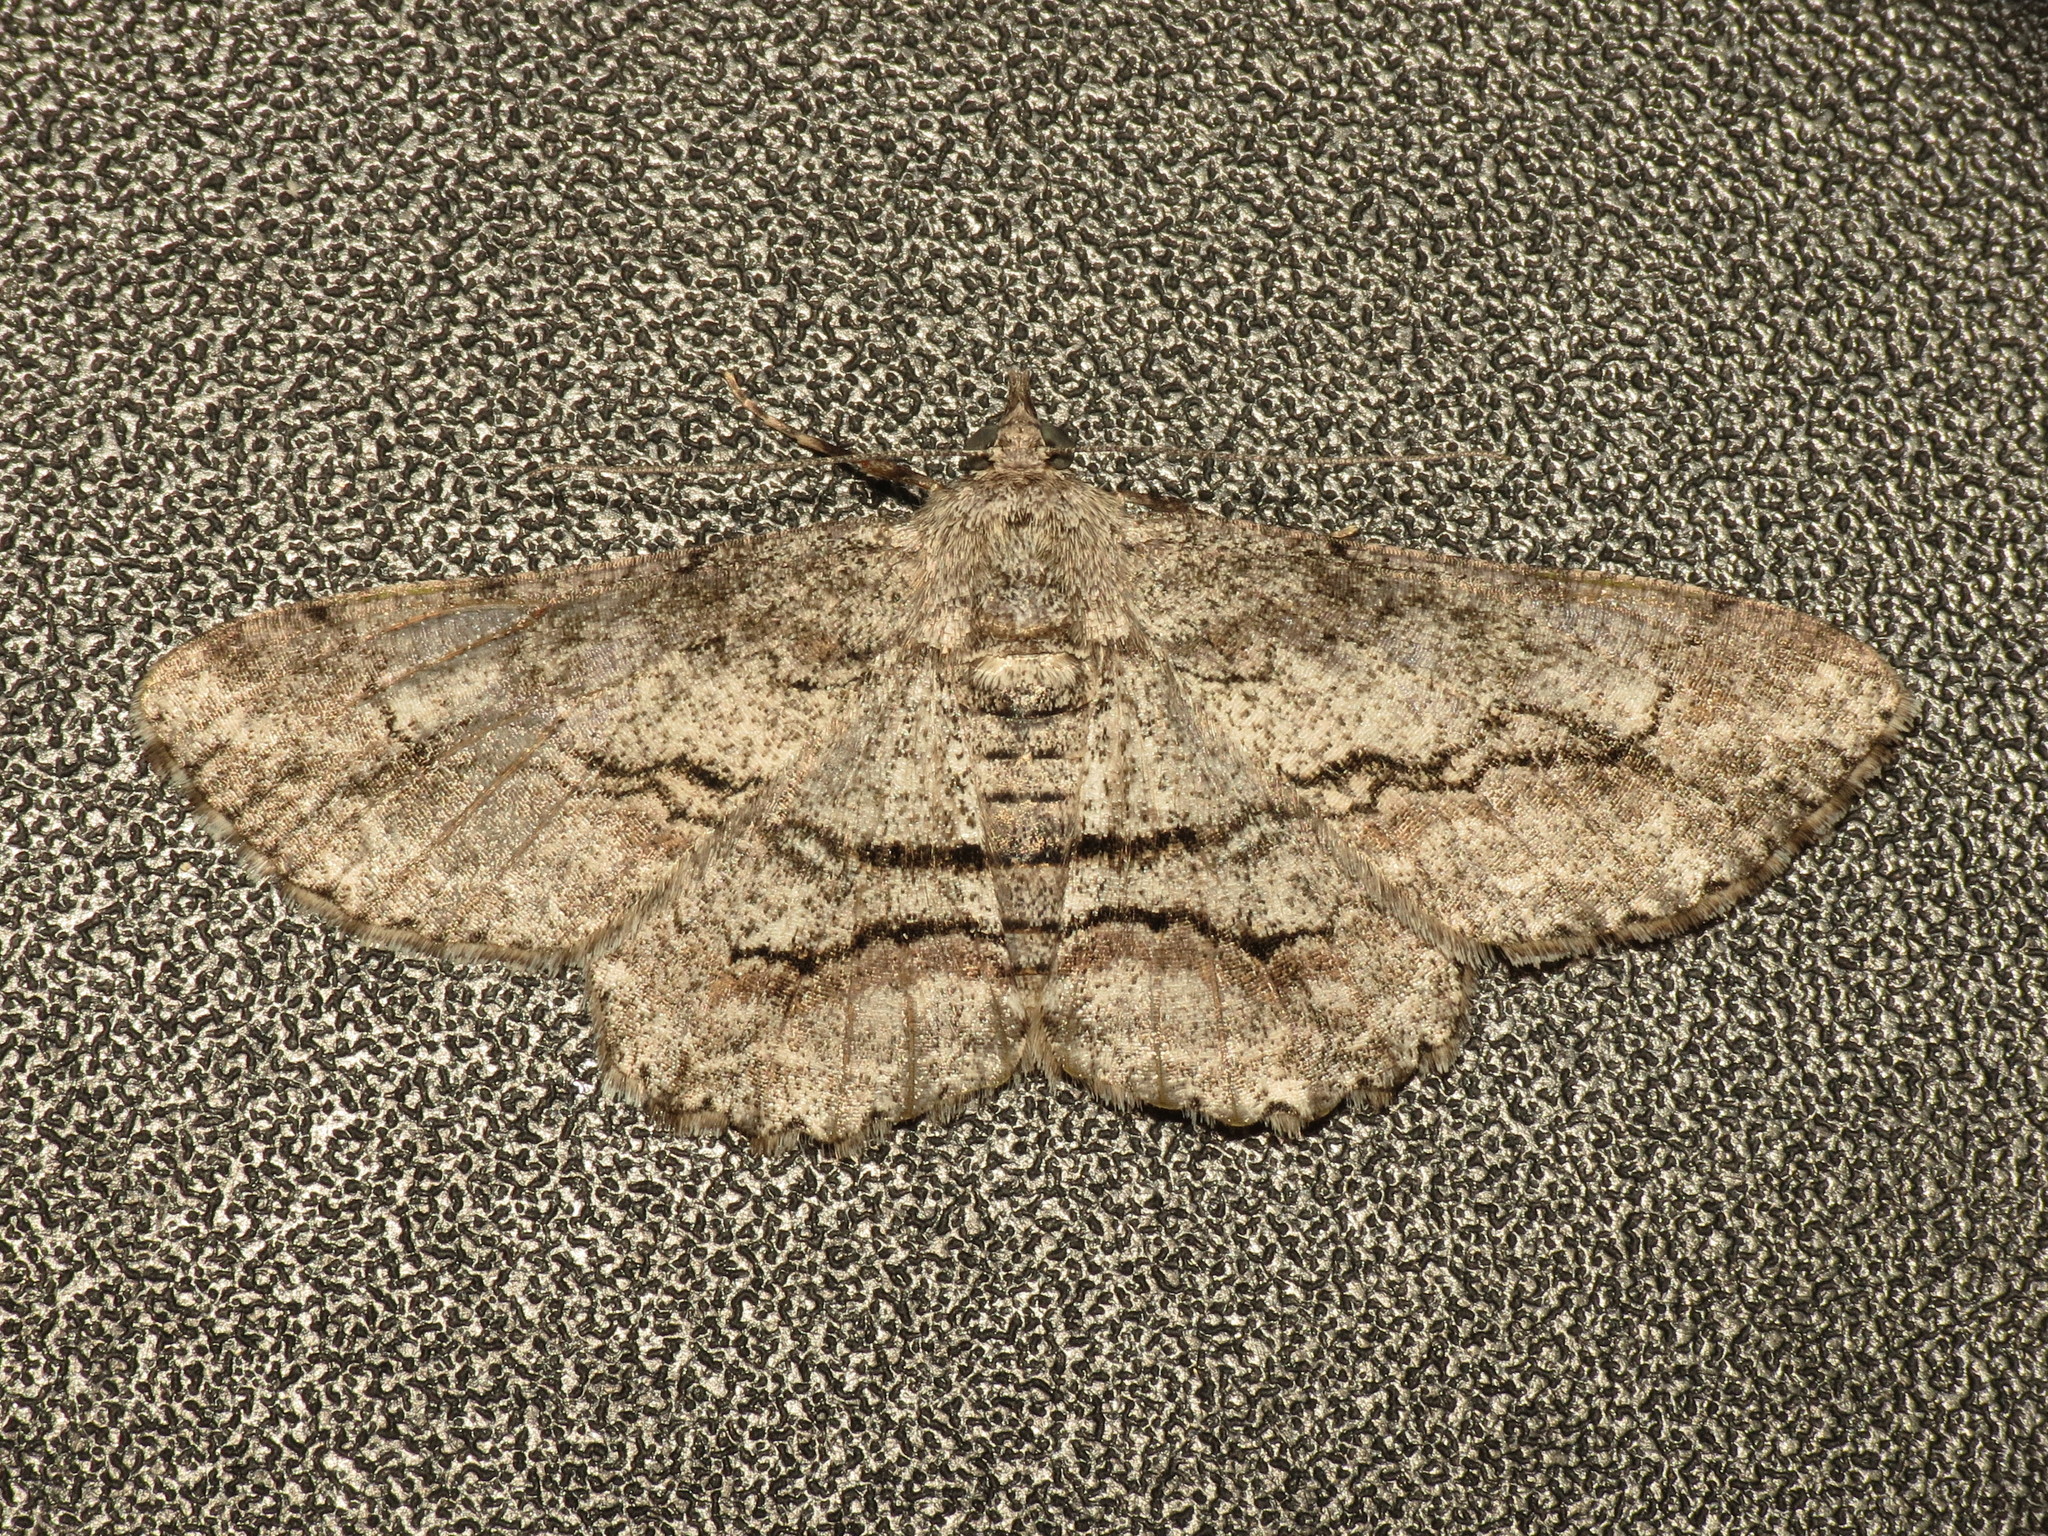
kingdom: Animalia
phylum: Arthropoda
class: Insecta
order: Lepidoptera
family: Geometridae
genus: Cleora
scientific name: Cleora injectaria
